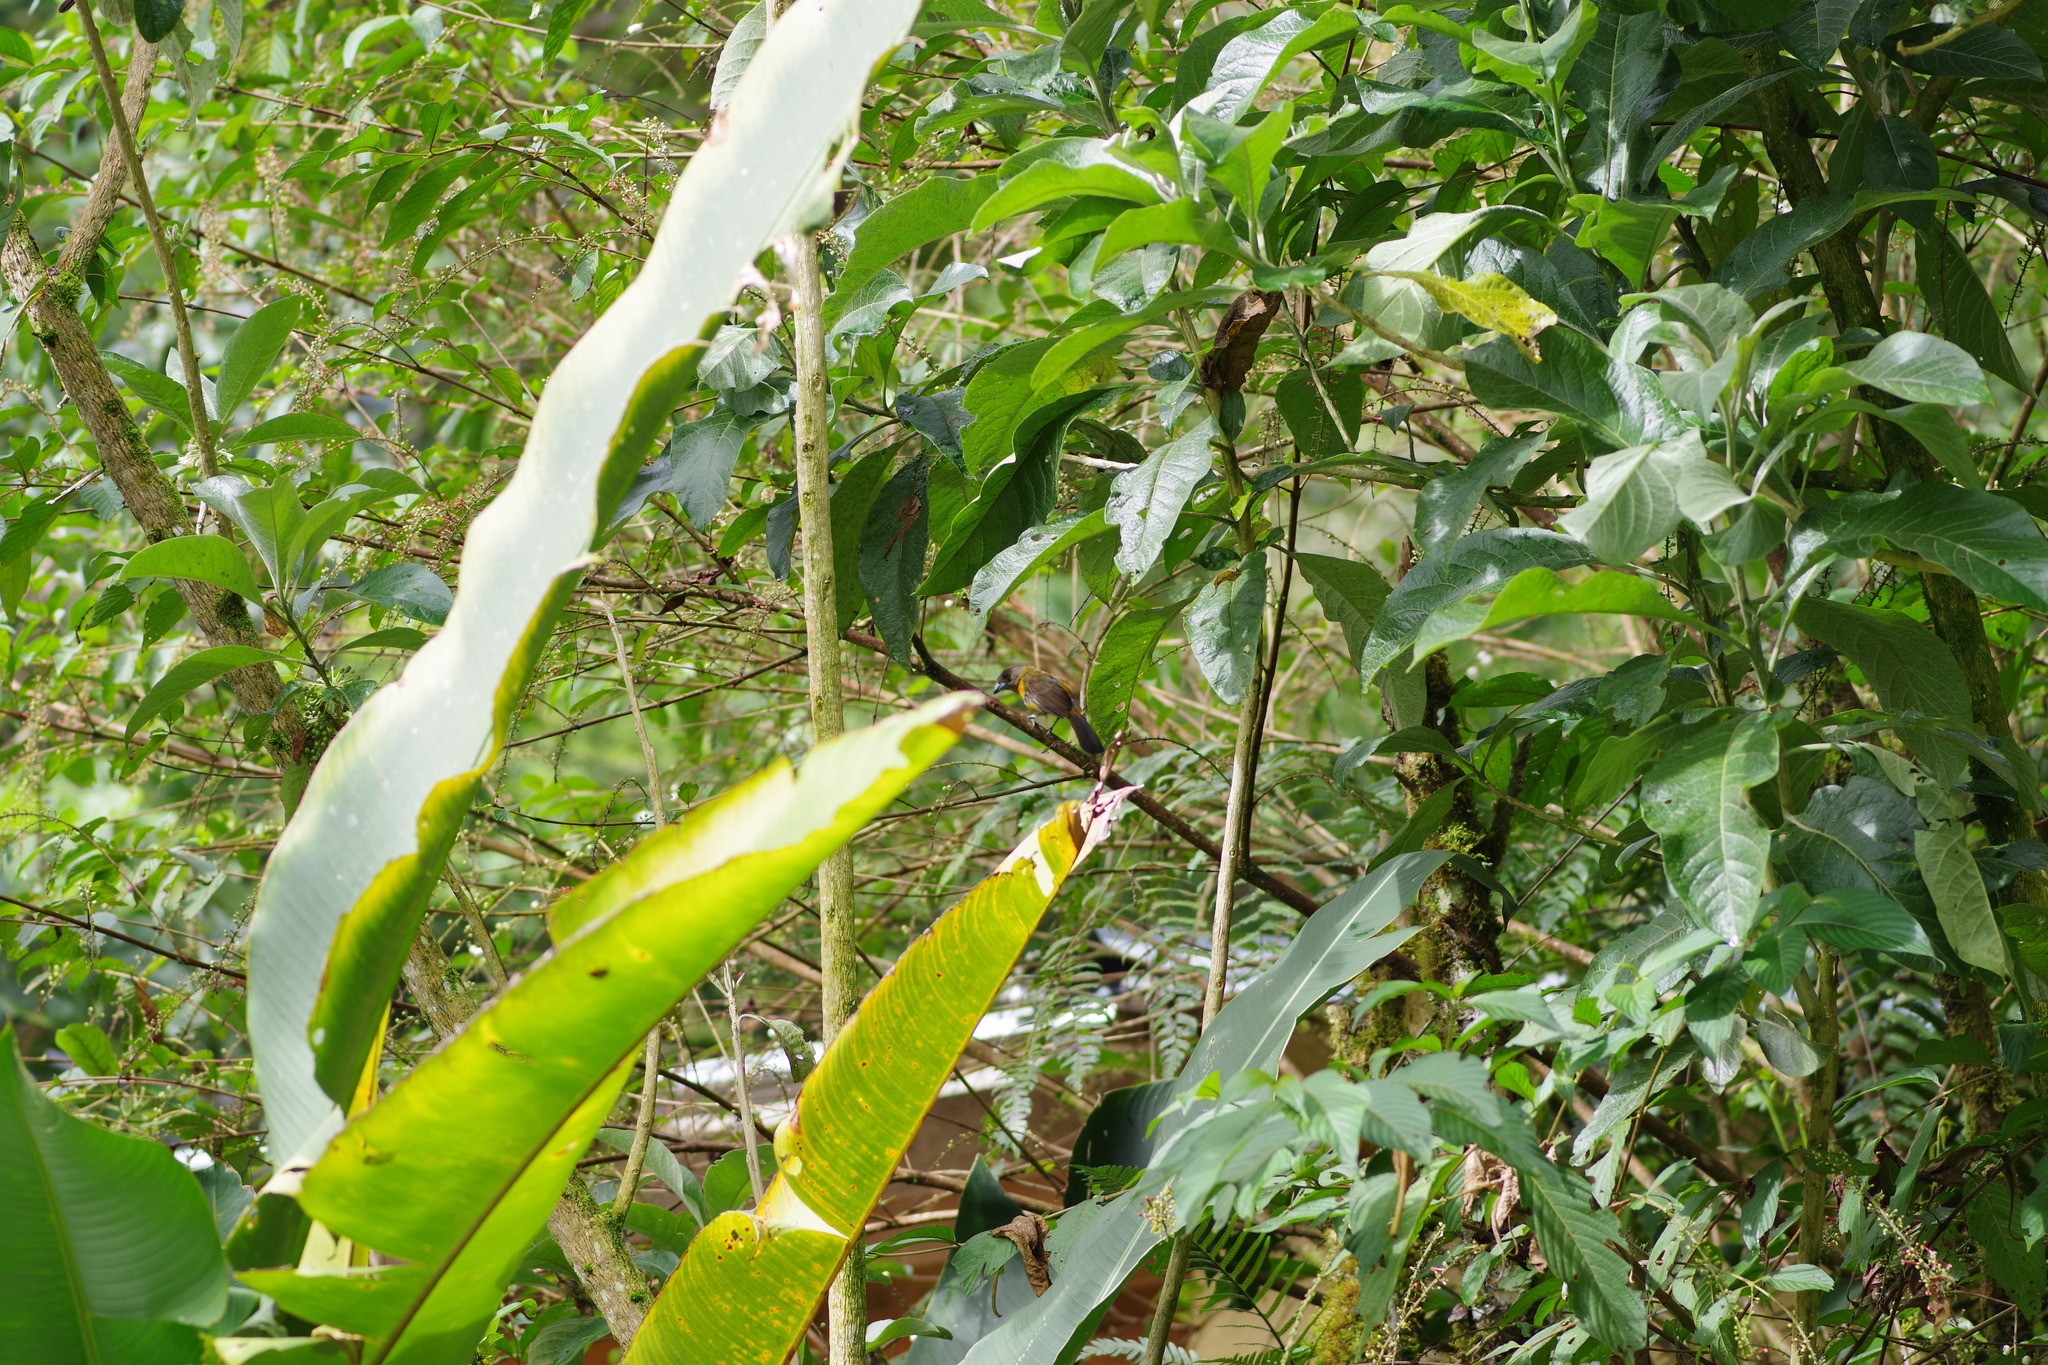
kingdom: Animalia
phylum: Chordata
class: Aves
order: Passeriformes
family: Thraupidae
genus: Ramphocelus
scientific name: Ramphocelus passerinii
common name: Passerini's tanager
